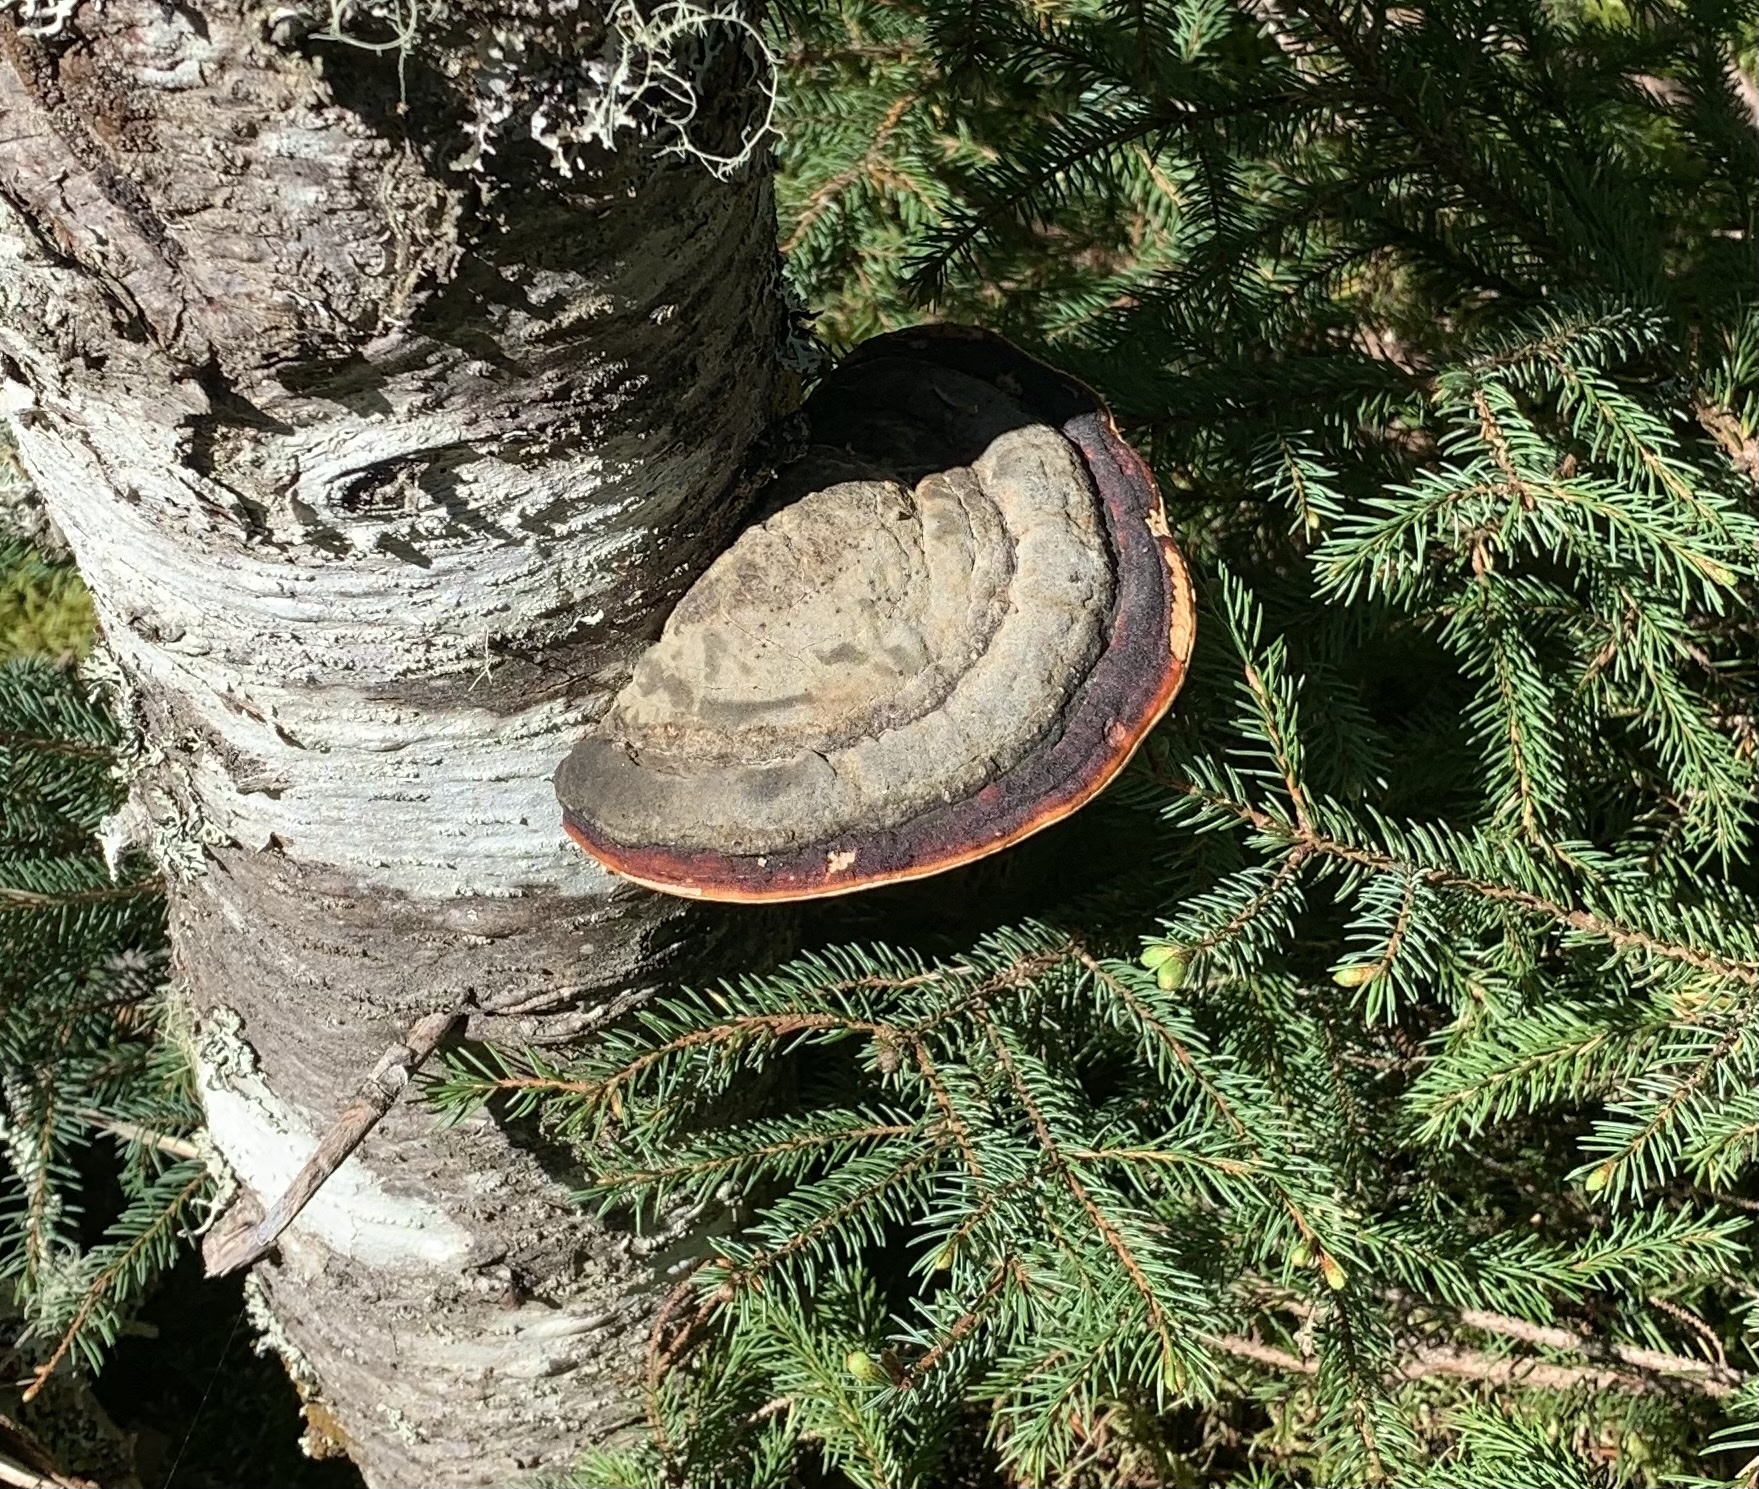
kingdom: Fungi
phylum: Basidiomycota
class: Agaricomycetes
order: Polyporales
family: Fomitopsidaceae
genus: Fomitopsis
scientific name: Fomitopsis mounceae
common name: Northern red belt
